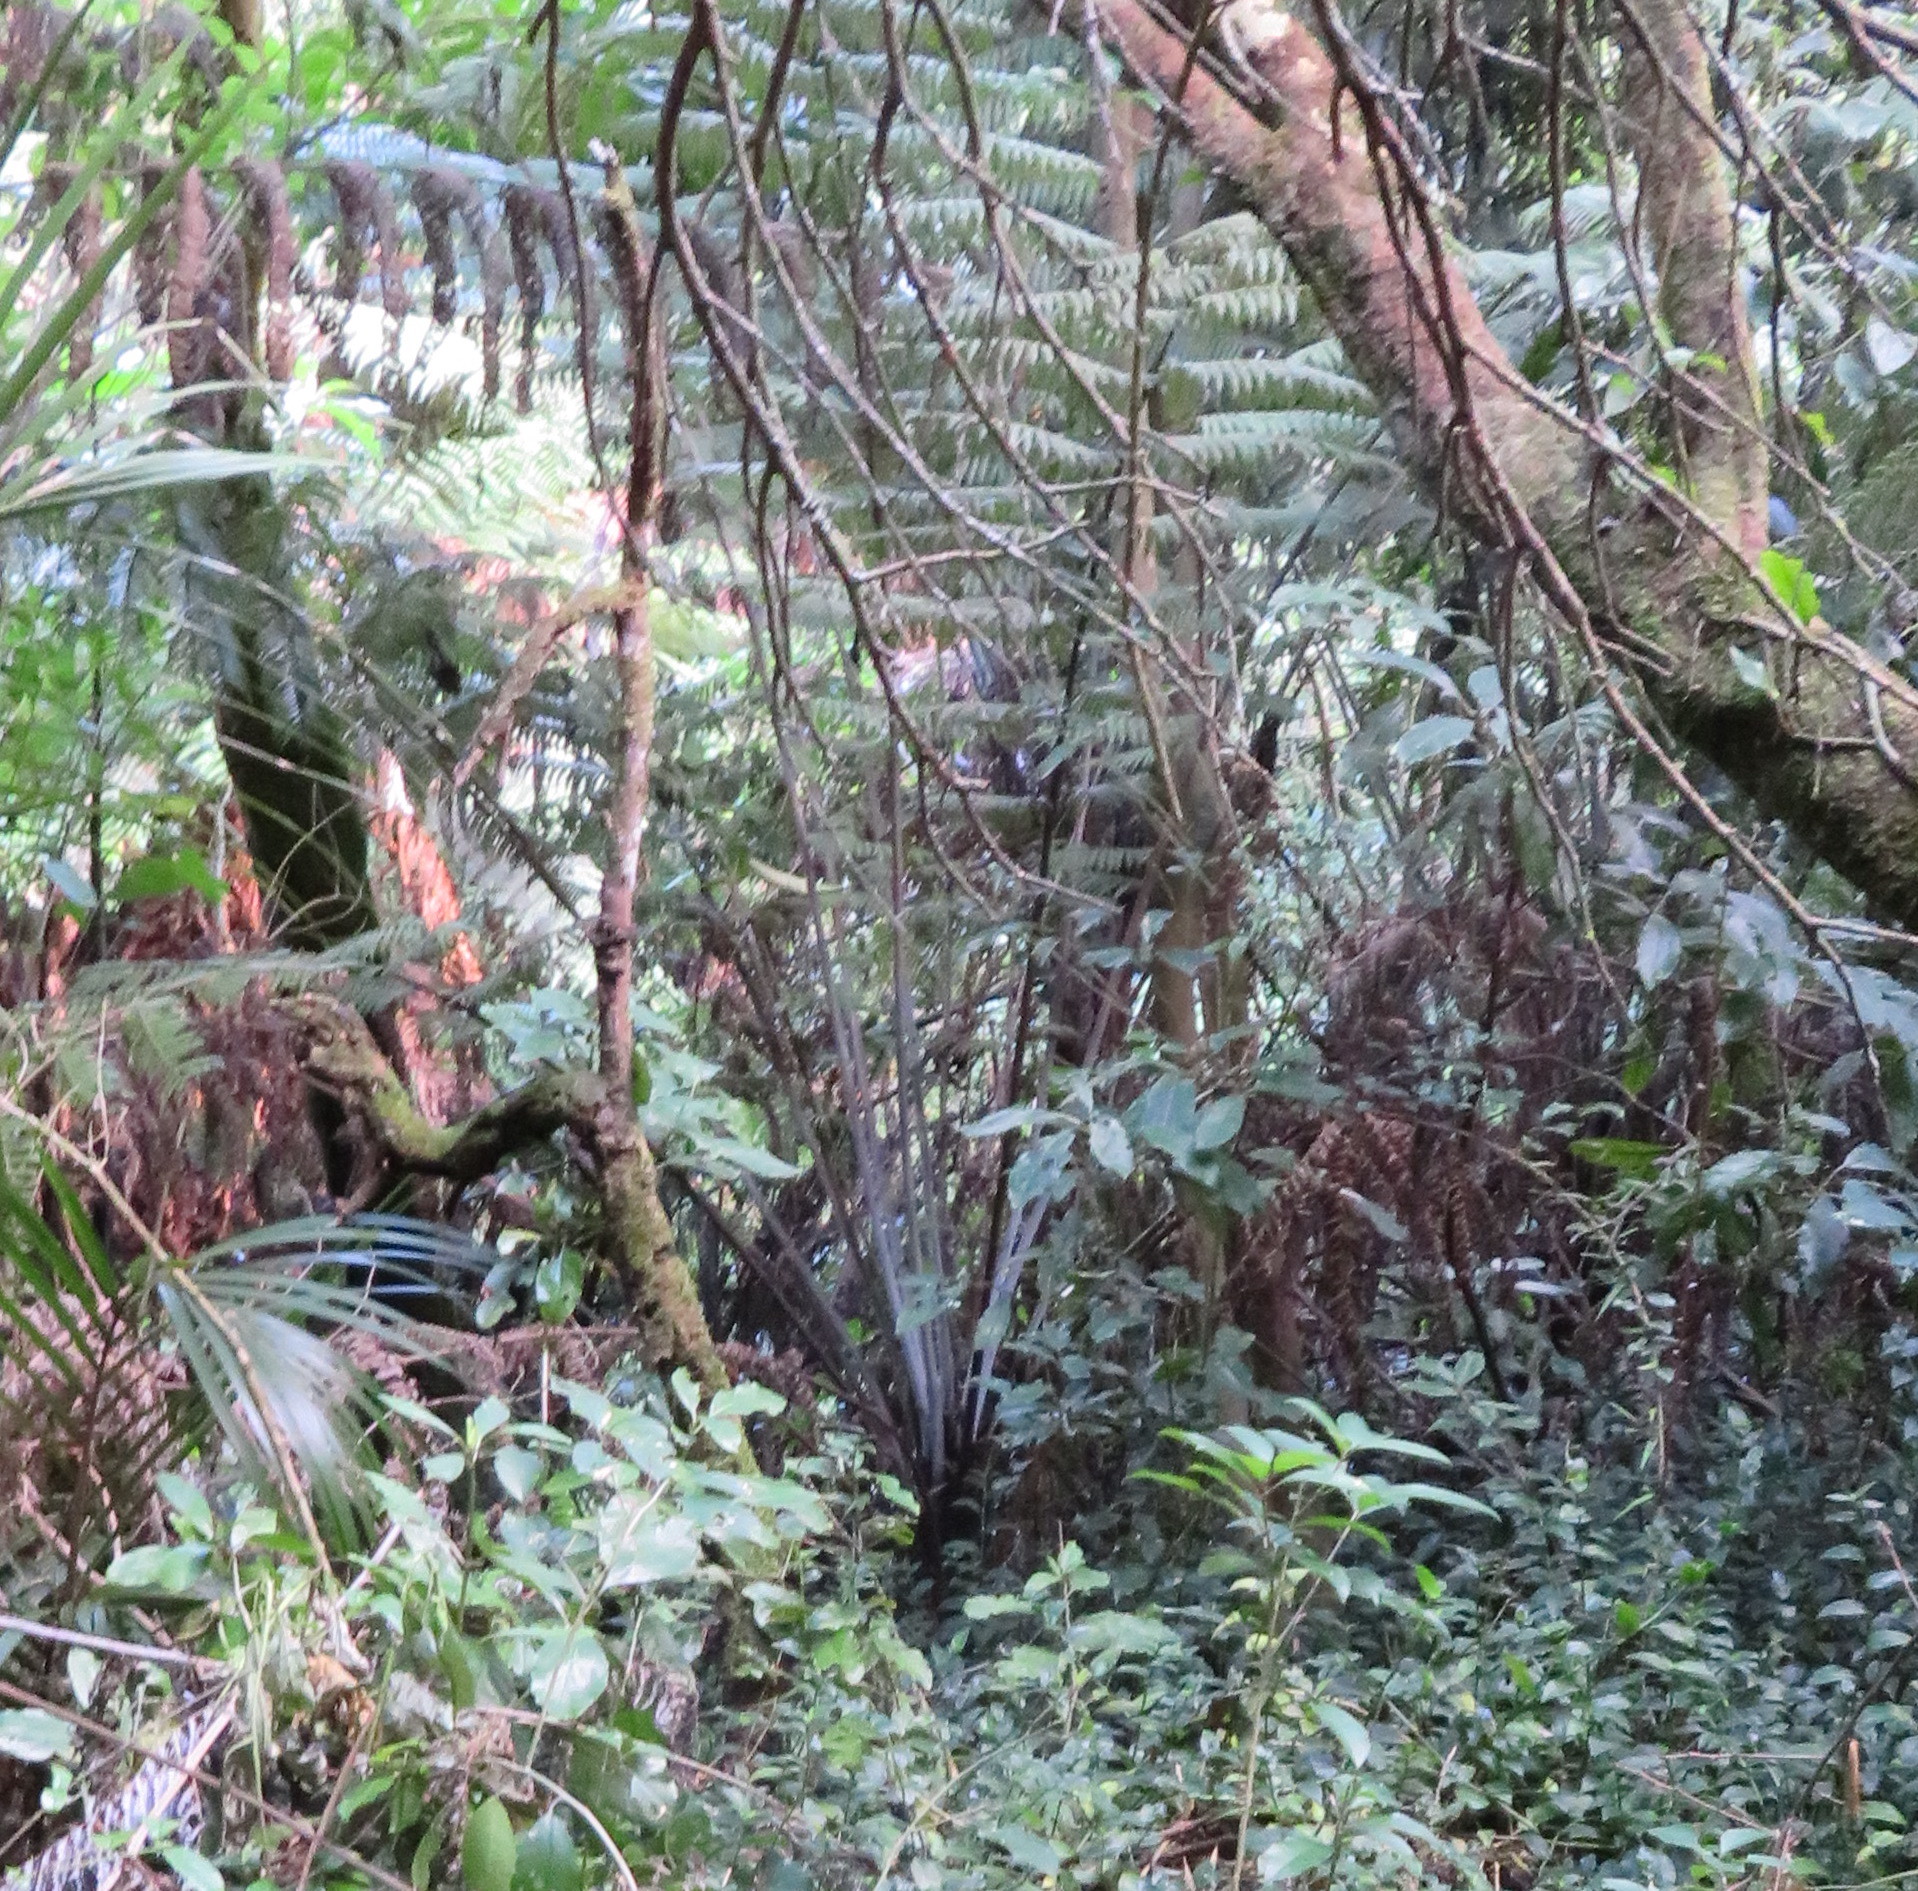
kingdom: Plantae
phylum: Tracheophyta
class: Polypodiopsida
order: Cyatheales
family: Cyatheaceae
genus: Alsophila
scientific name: Alsophila dealbata
